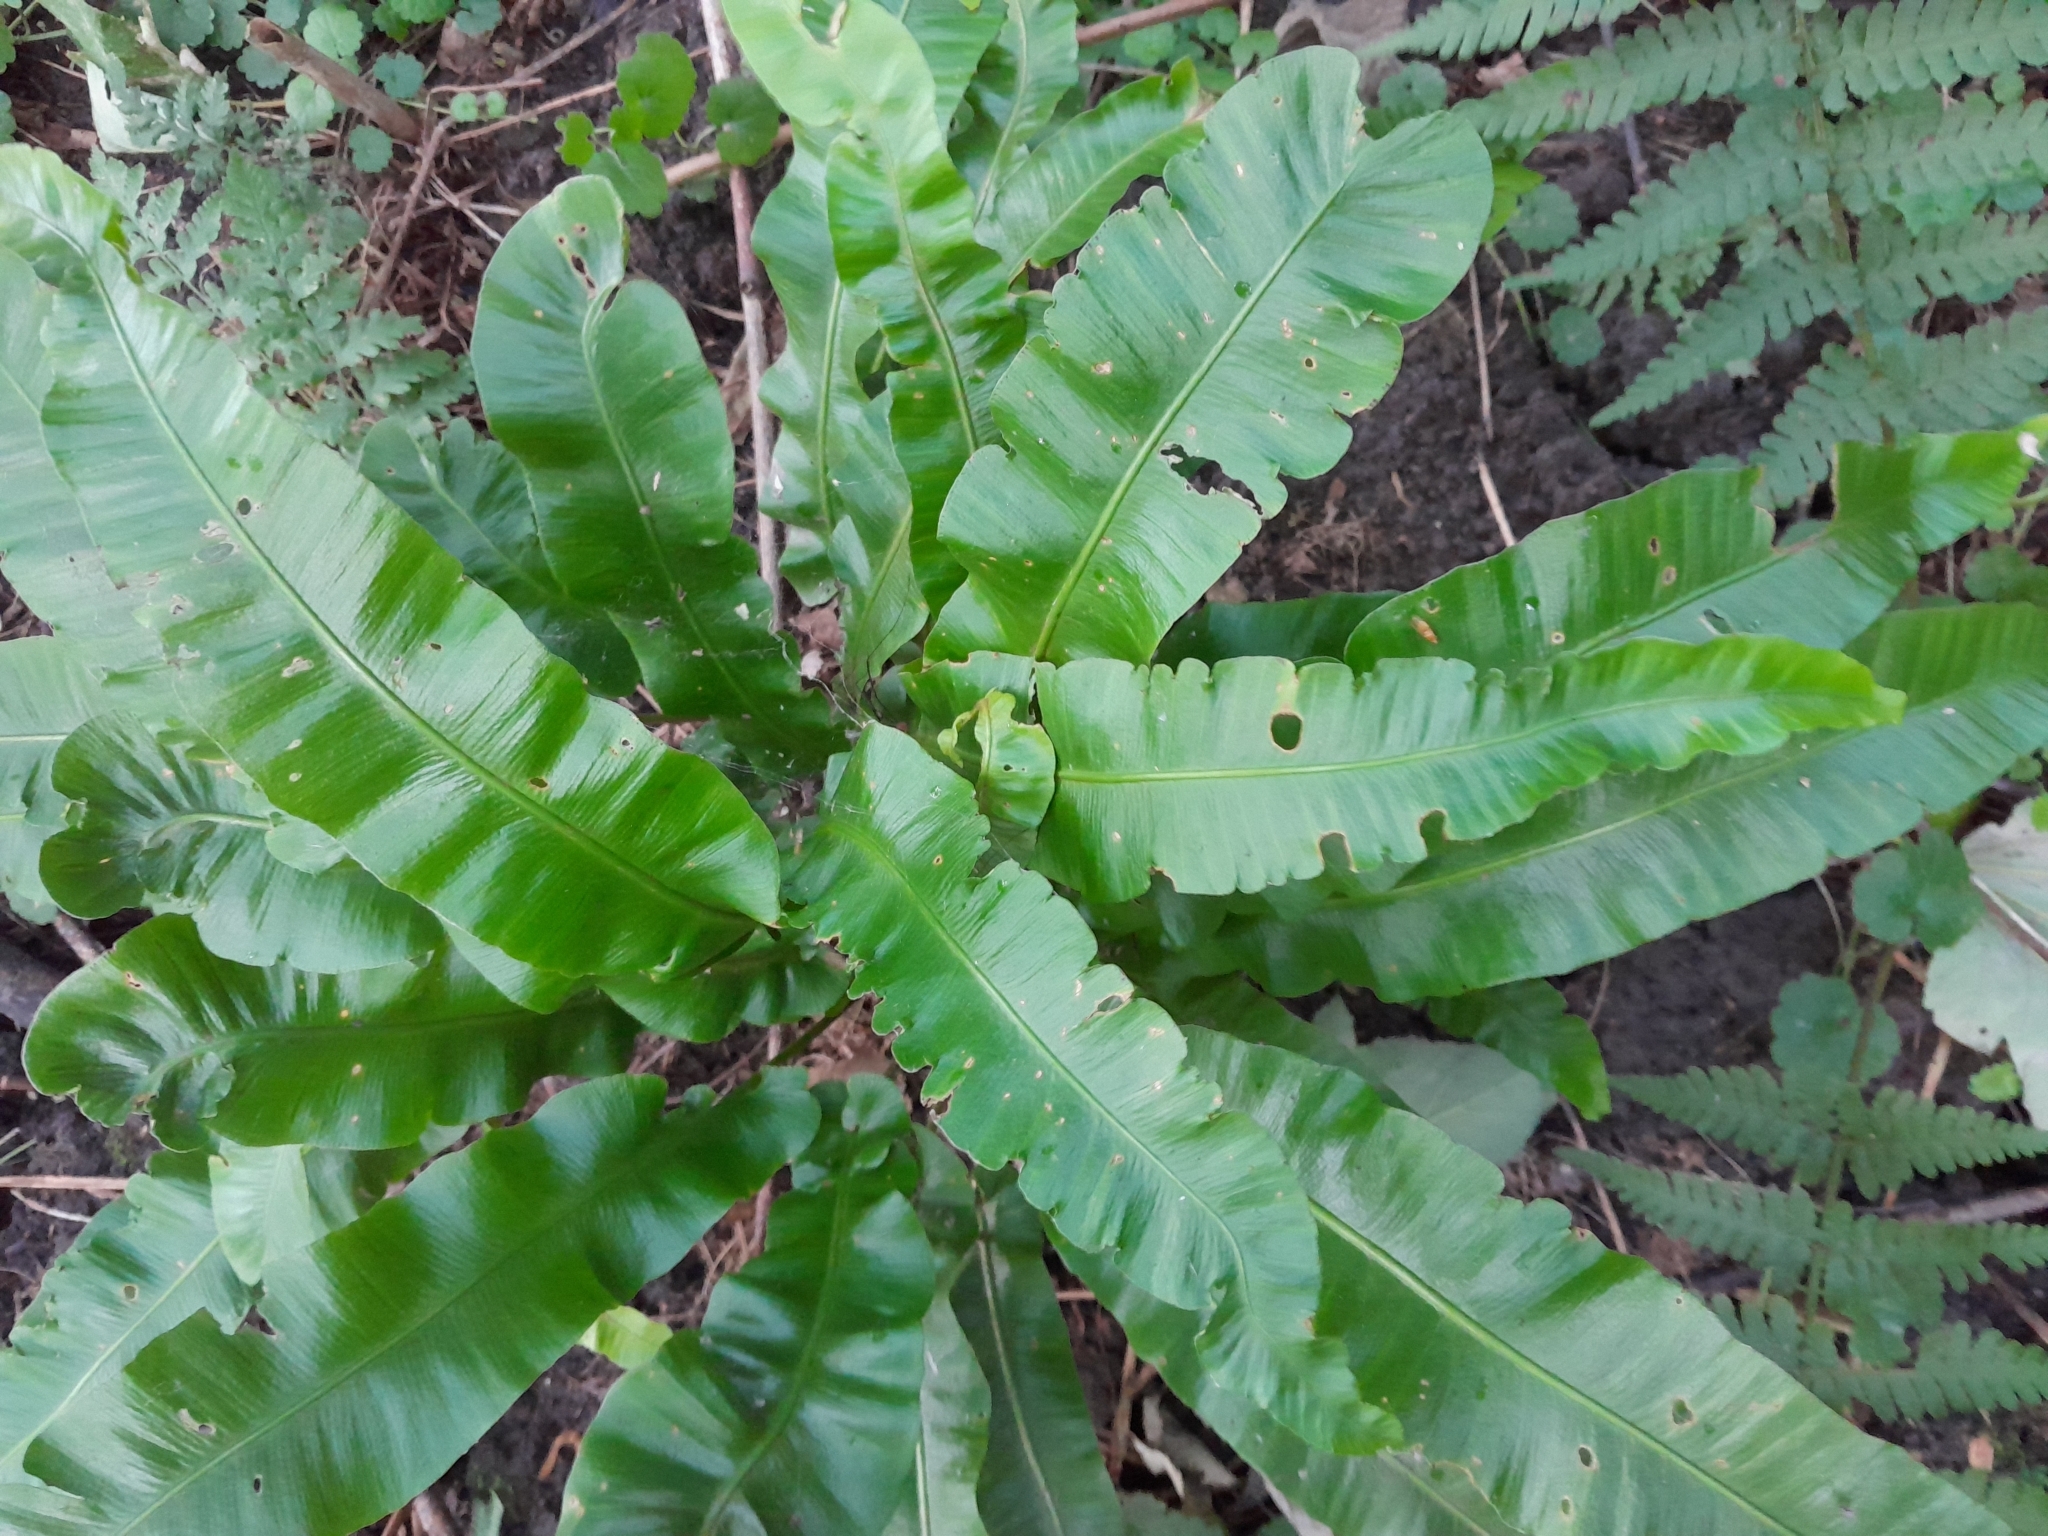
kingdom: Plantae
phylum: Tracheophyta
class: Polypodiopsida
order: Polypodiales
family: Aspleniaceae
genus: Asplenium
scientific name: Asplenium scolopendrium
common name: Hart's-tongue fern
